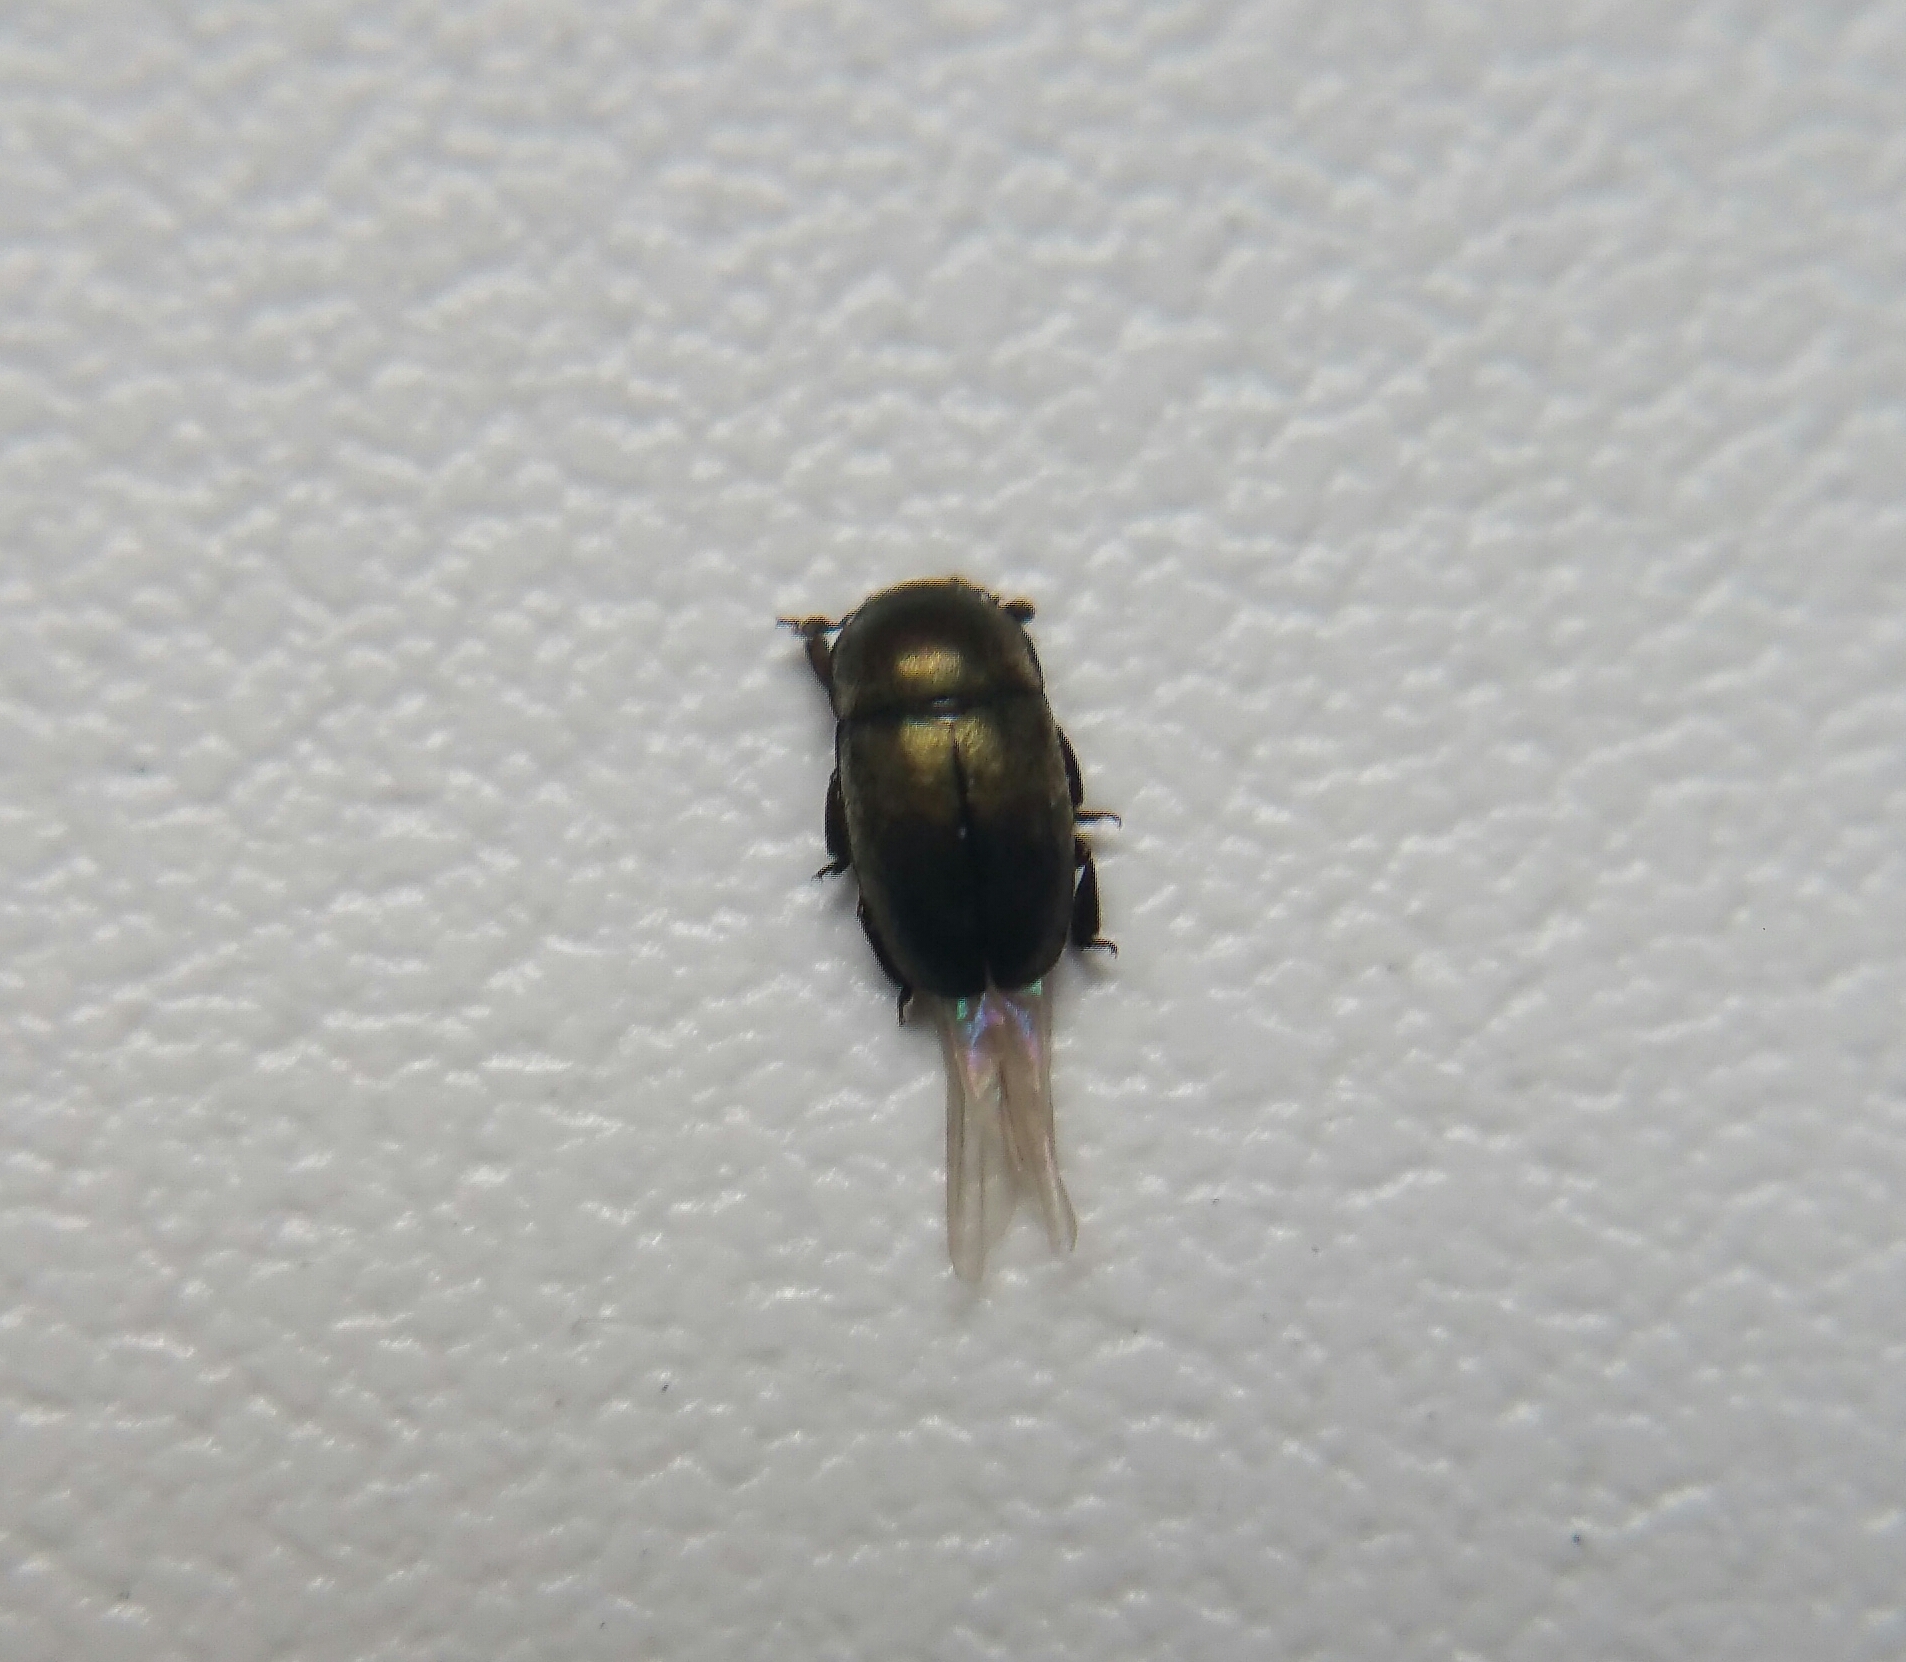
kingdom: Animalia
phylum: Arthropoda
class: Insecta
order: Coleoptera
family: Nitidulidae
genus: Brassicogethes
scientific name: Brassicogethes aeneus
